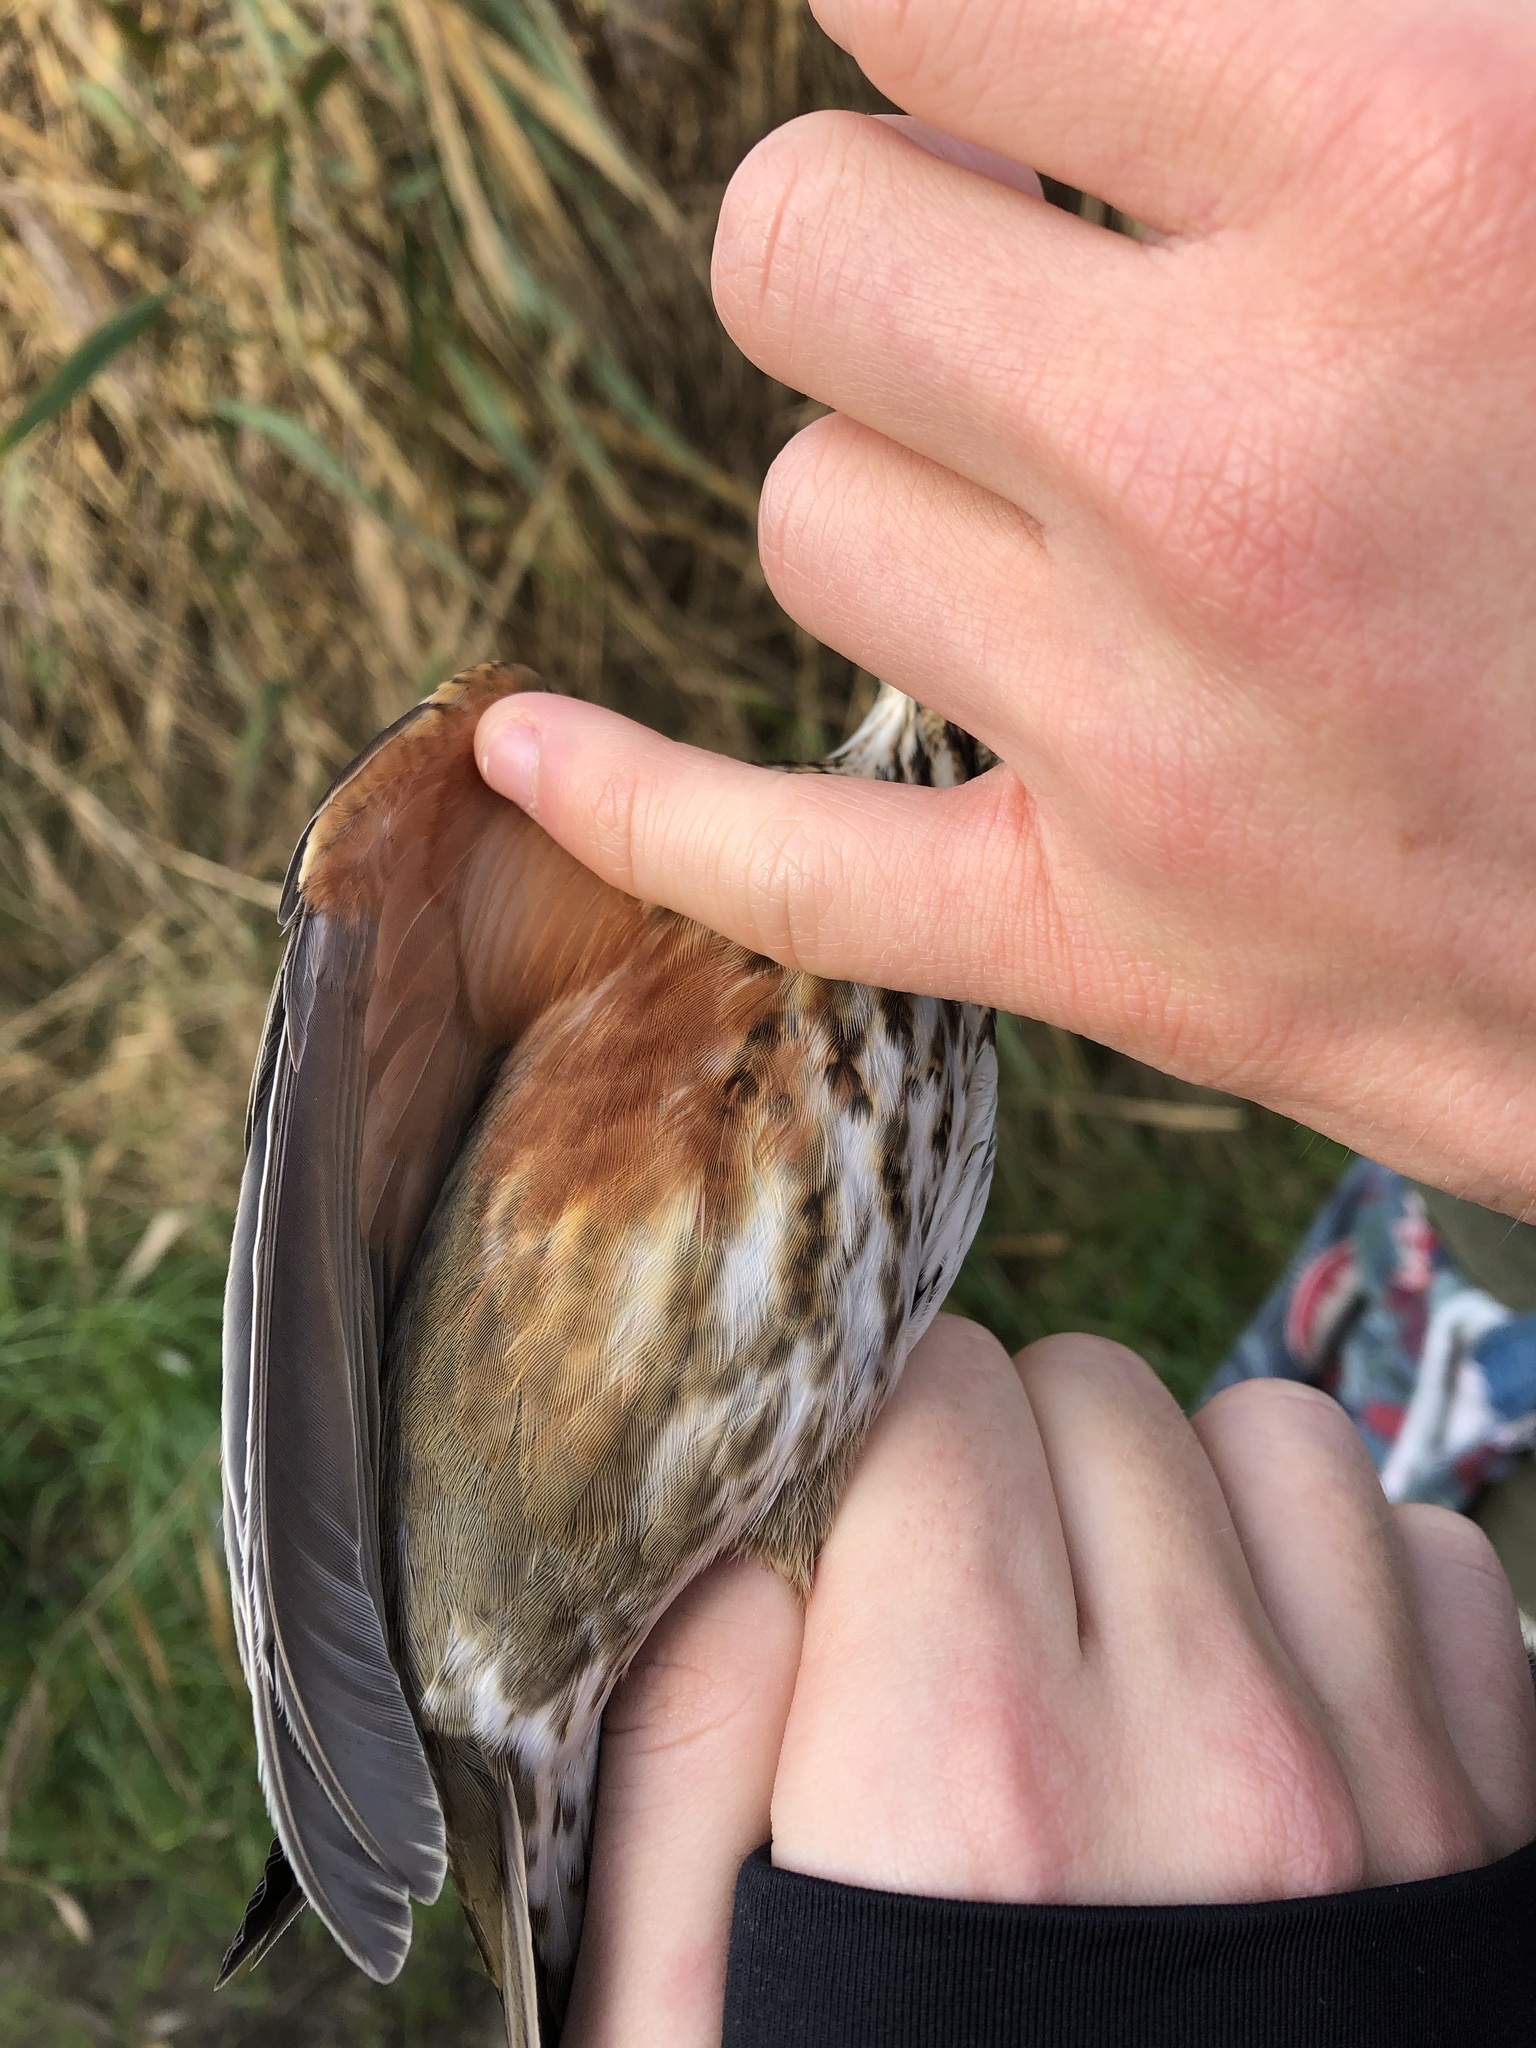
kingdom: Animalia
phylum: Chordata
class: Aves
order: Passeriformes
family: Turdidae
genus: Turdus
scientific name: Turdus iliacus
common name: Redwing
